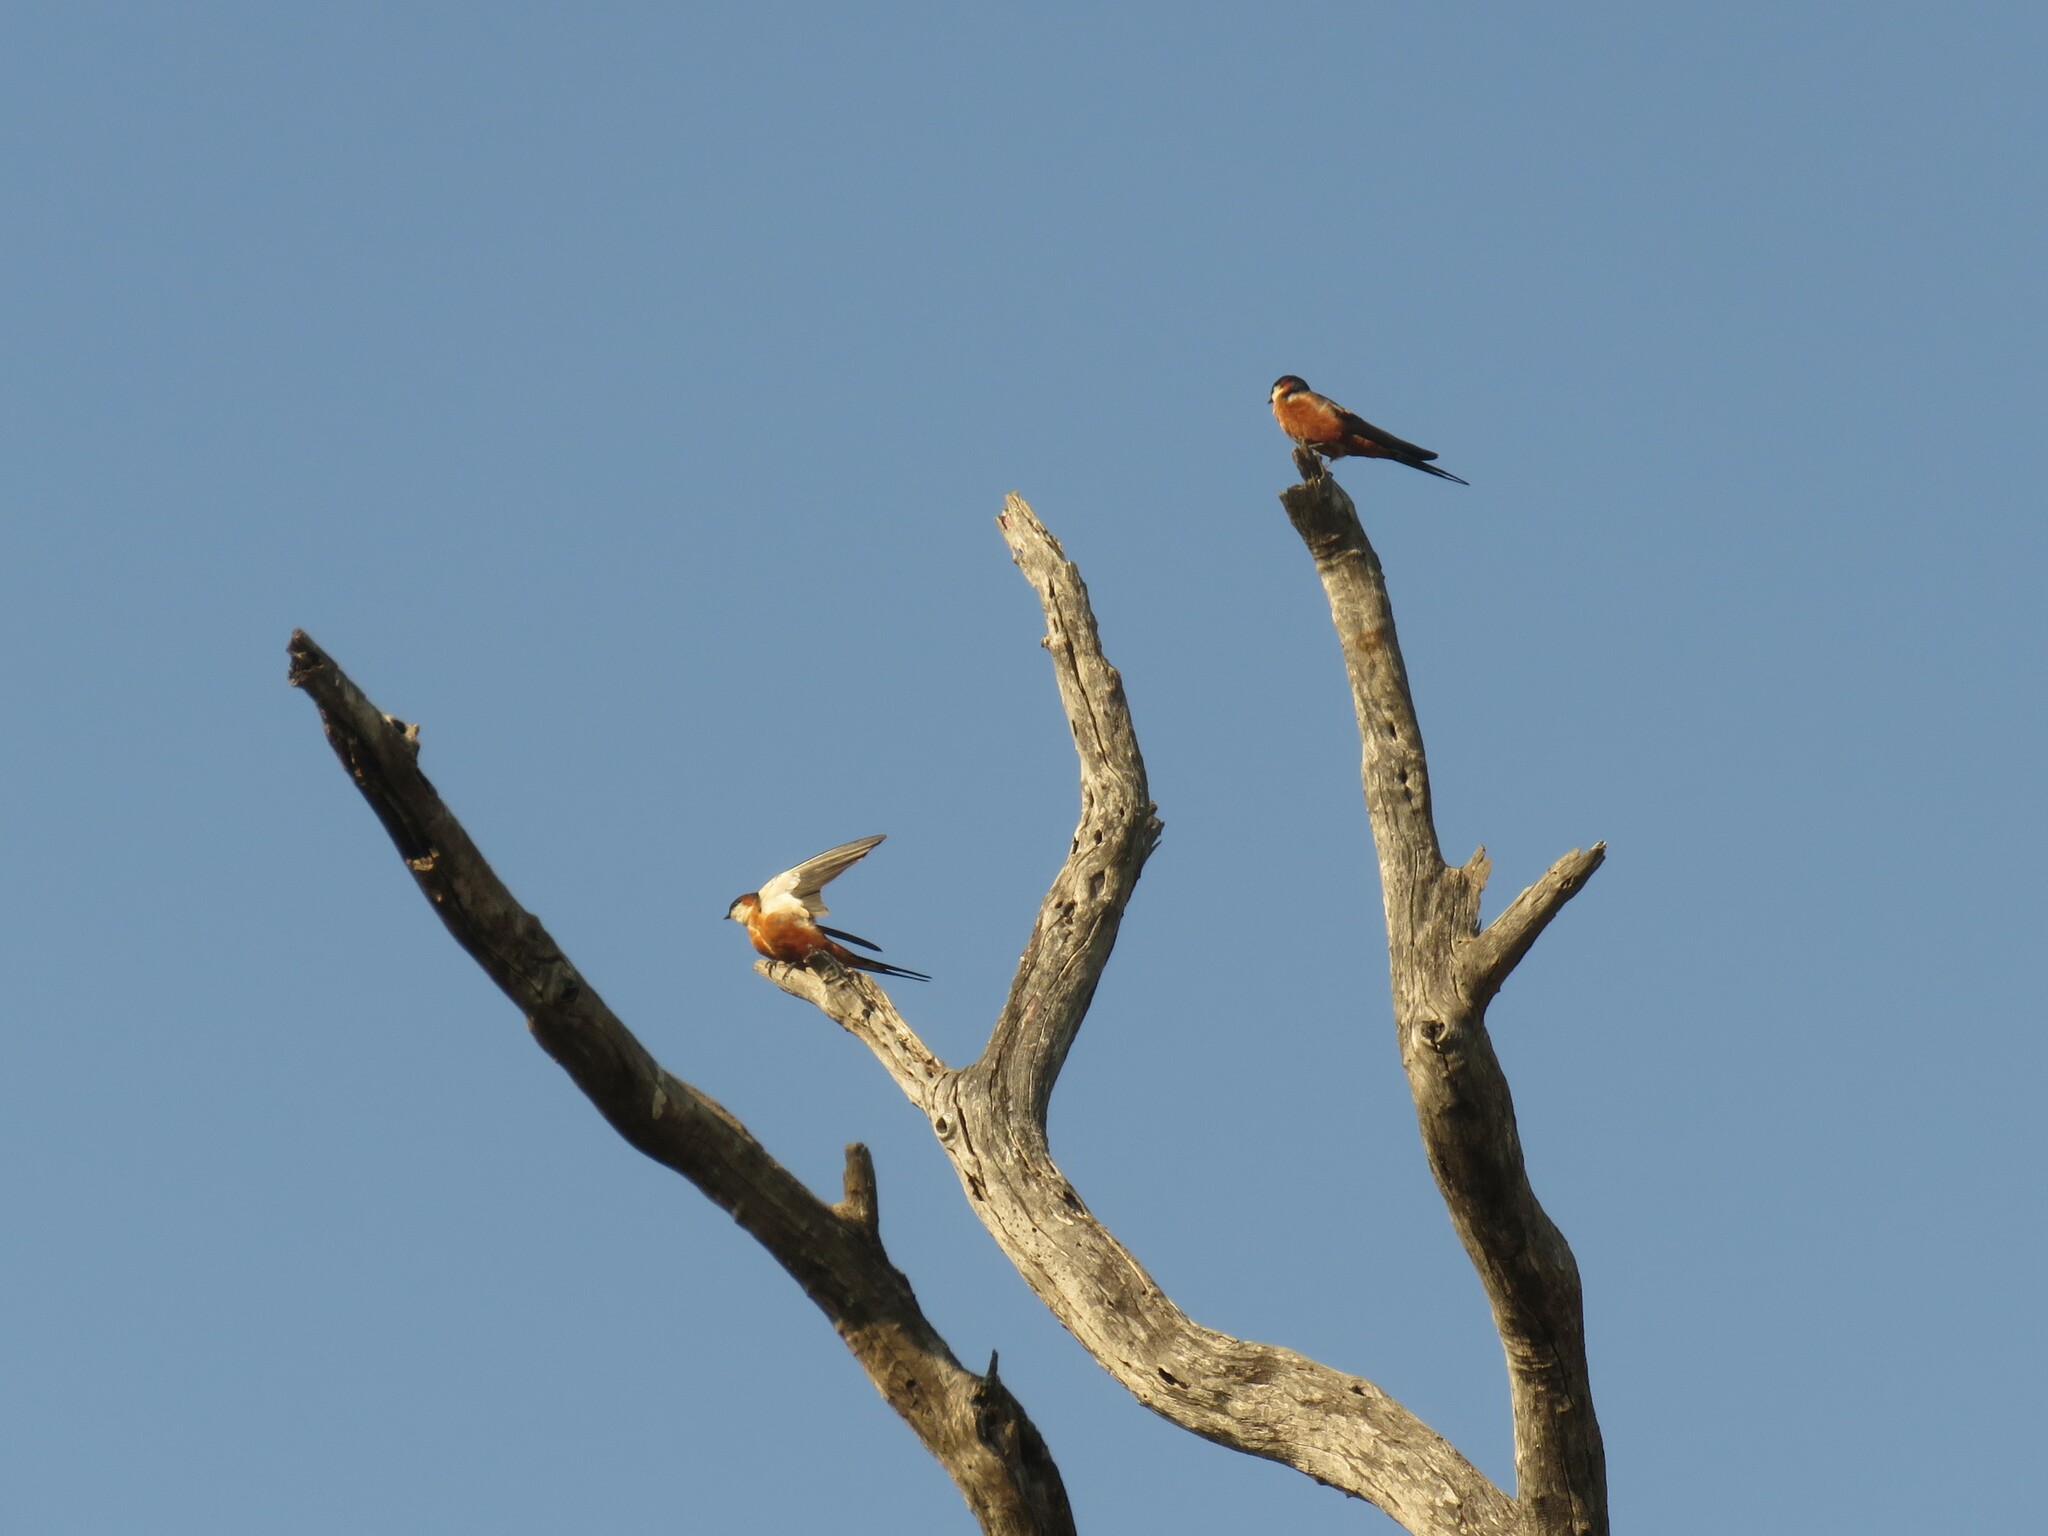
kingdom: Animalia
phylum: Chordata
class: Aves
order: Passeriformes
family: Hirundinidae
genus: Cecropis
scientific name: Cecropis senegalensis
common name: Mosque swallow
